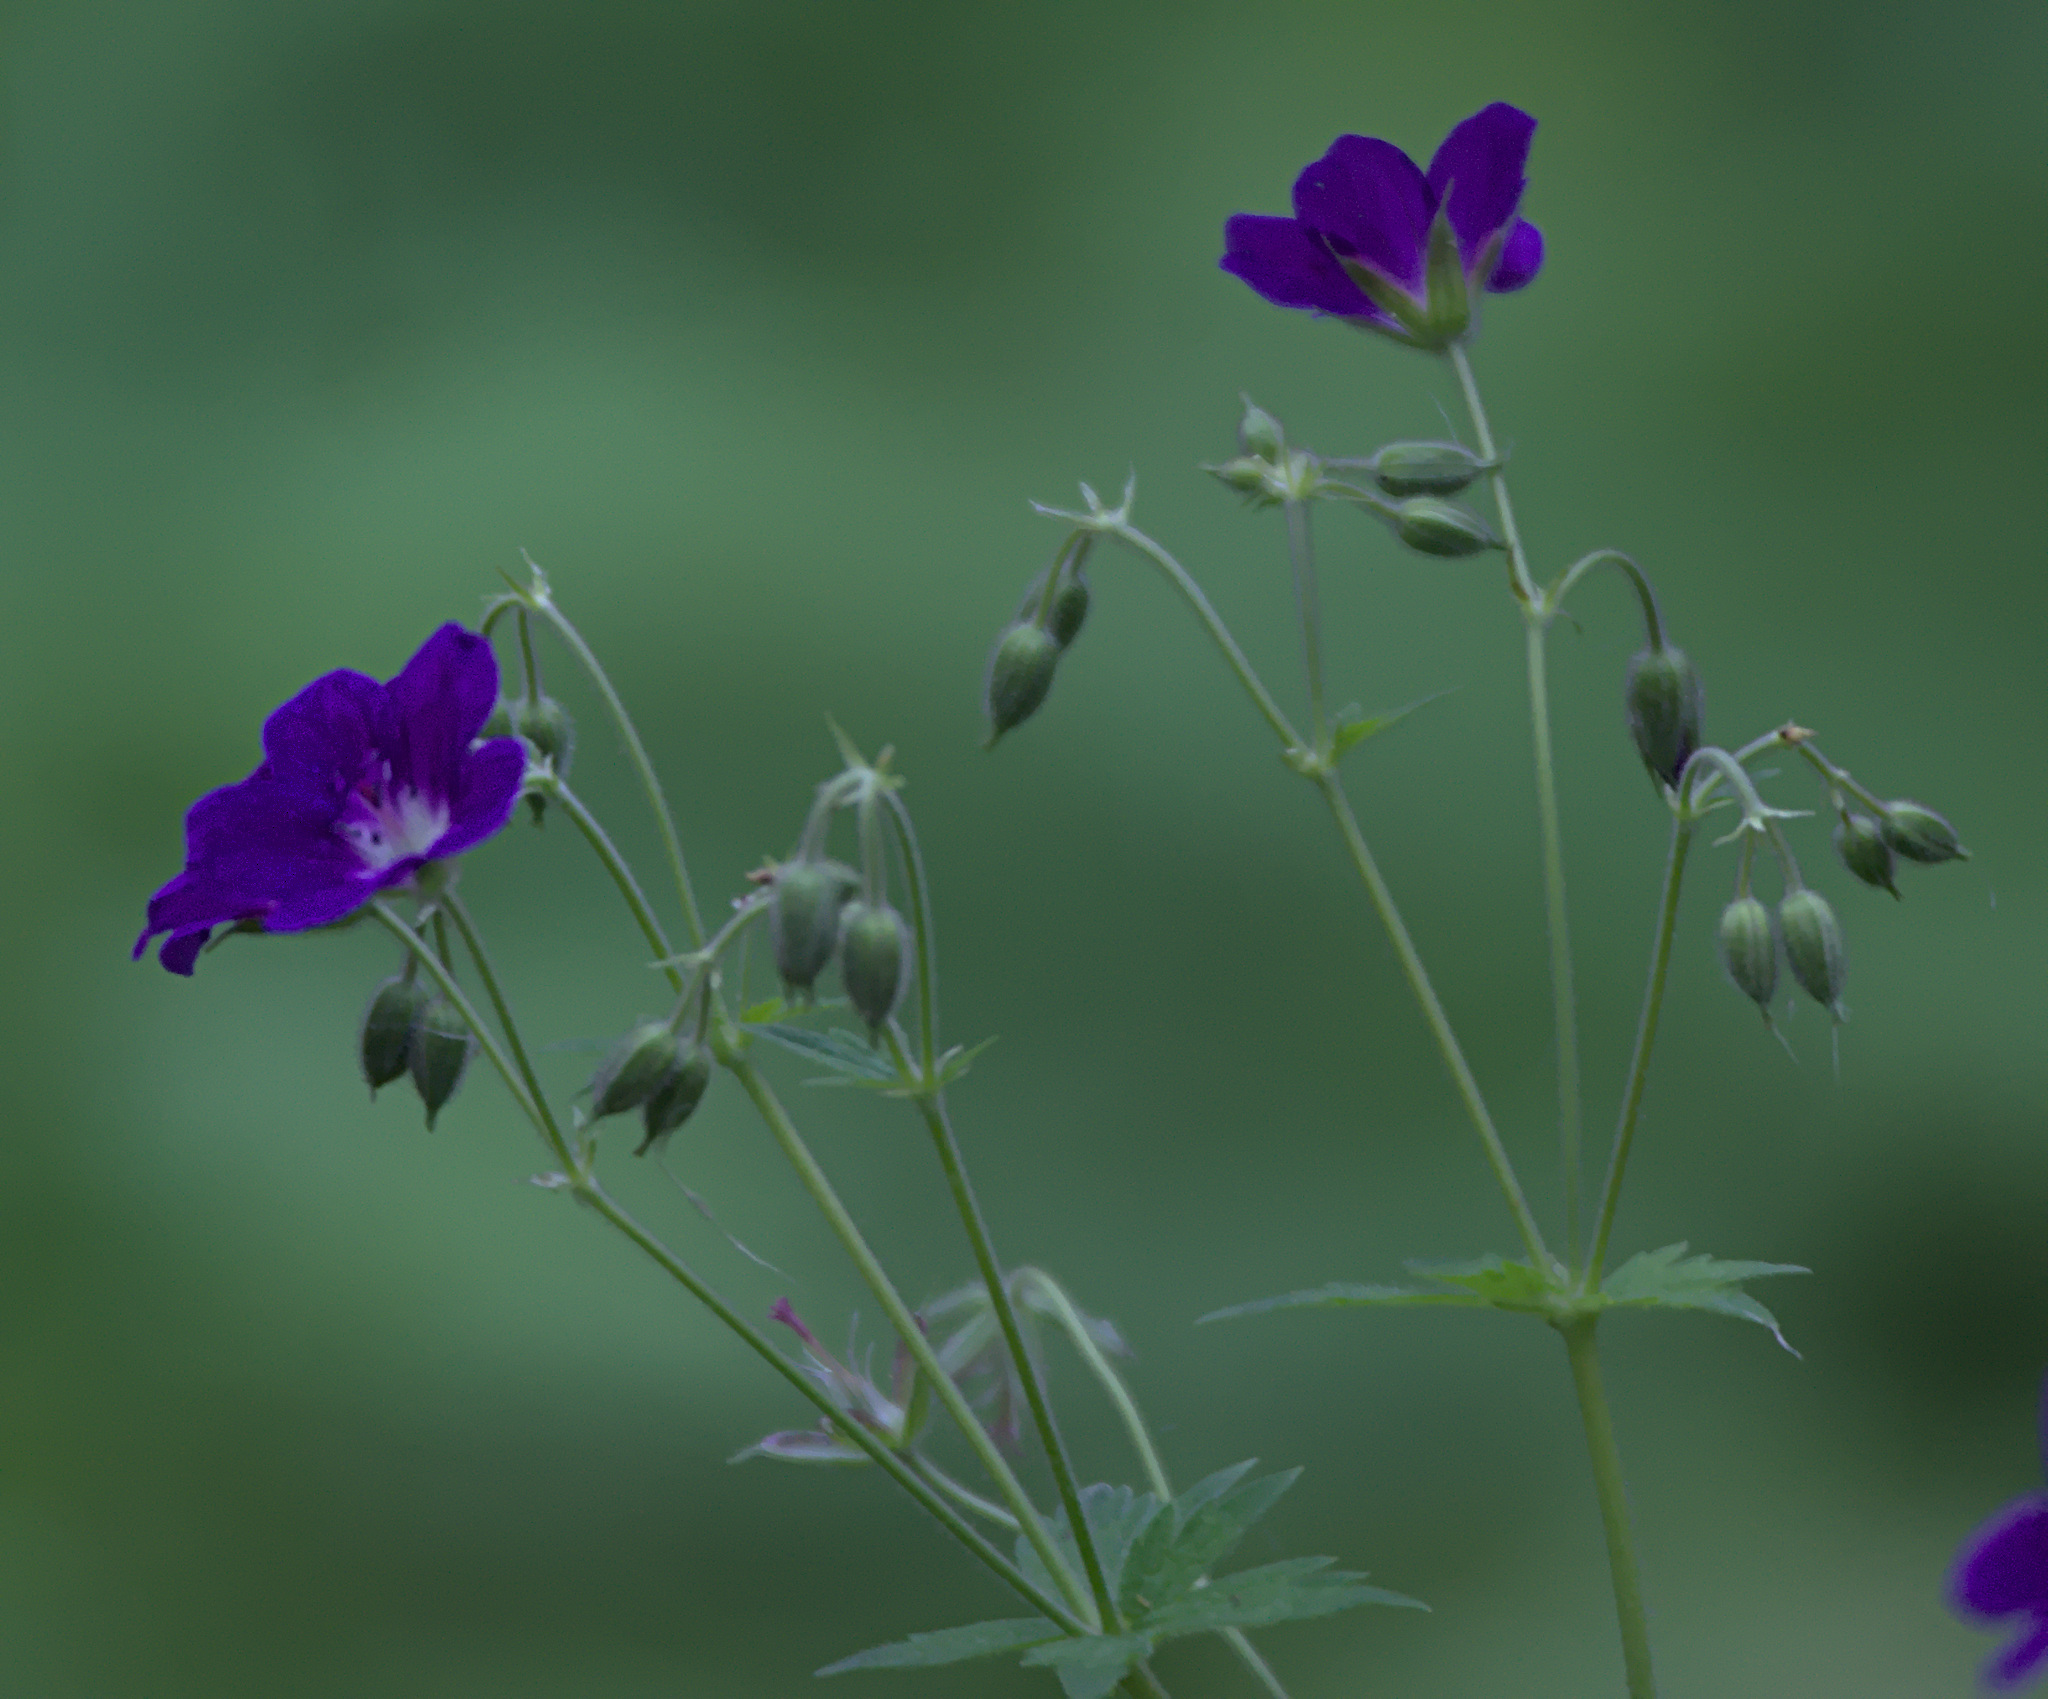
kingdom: Plantae
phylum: Tracheophyta
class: Magnoliopsida
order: Geraniales
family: Geraniaceae
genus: Geranium
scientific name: Geranium sylvaticum
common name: Wood crane's-bill
